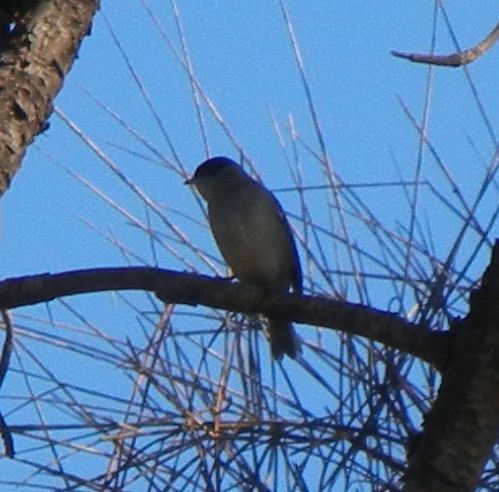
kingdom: Animalia
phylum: Chordata
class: Aves
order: Passeriformes
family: Sylviidae
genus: Sylvia
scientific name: Sylvia atricapilla
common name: Eurasian blackcap
